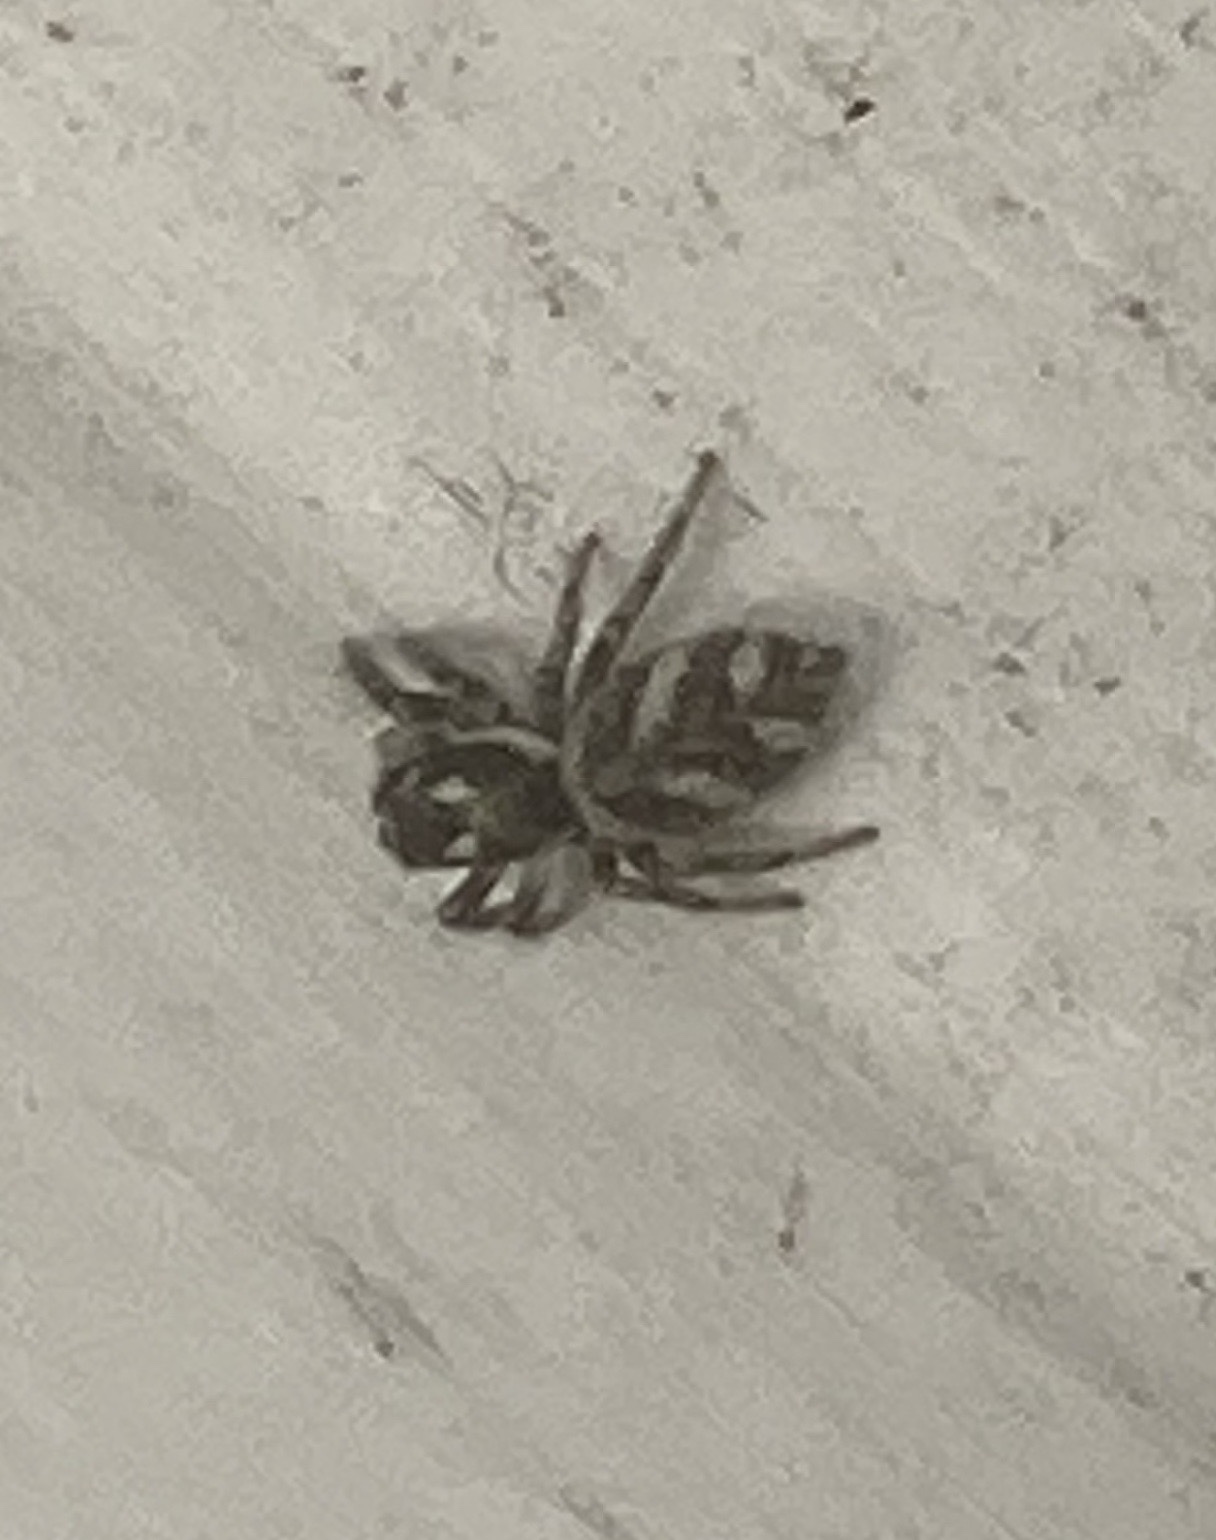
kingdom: Animalia
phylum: Arthropoda
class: Arachnida
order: Araneae
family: Salticidae
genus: Salticus
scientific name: Salticus scenicus
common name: Zebra jumper
